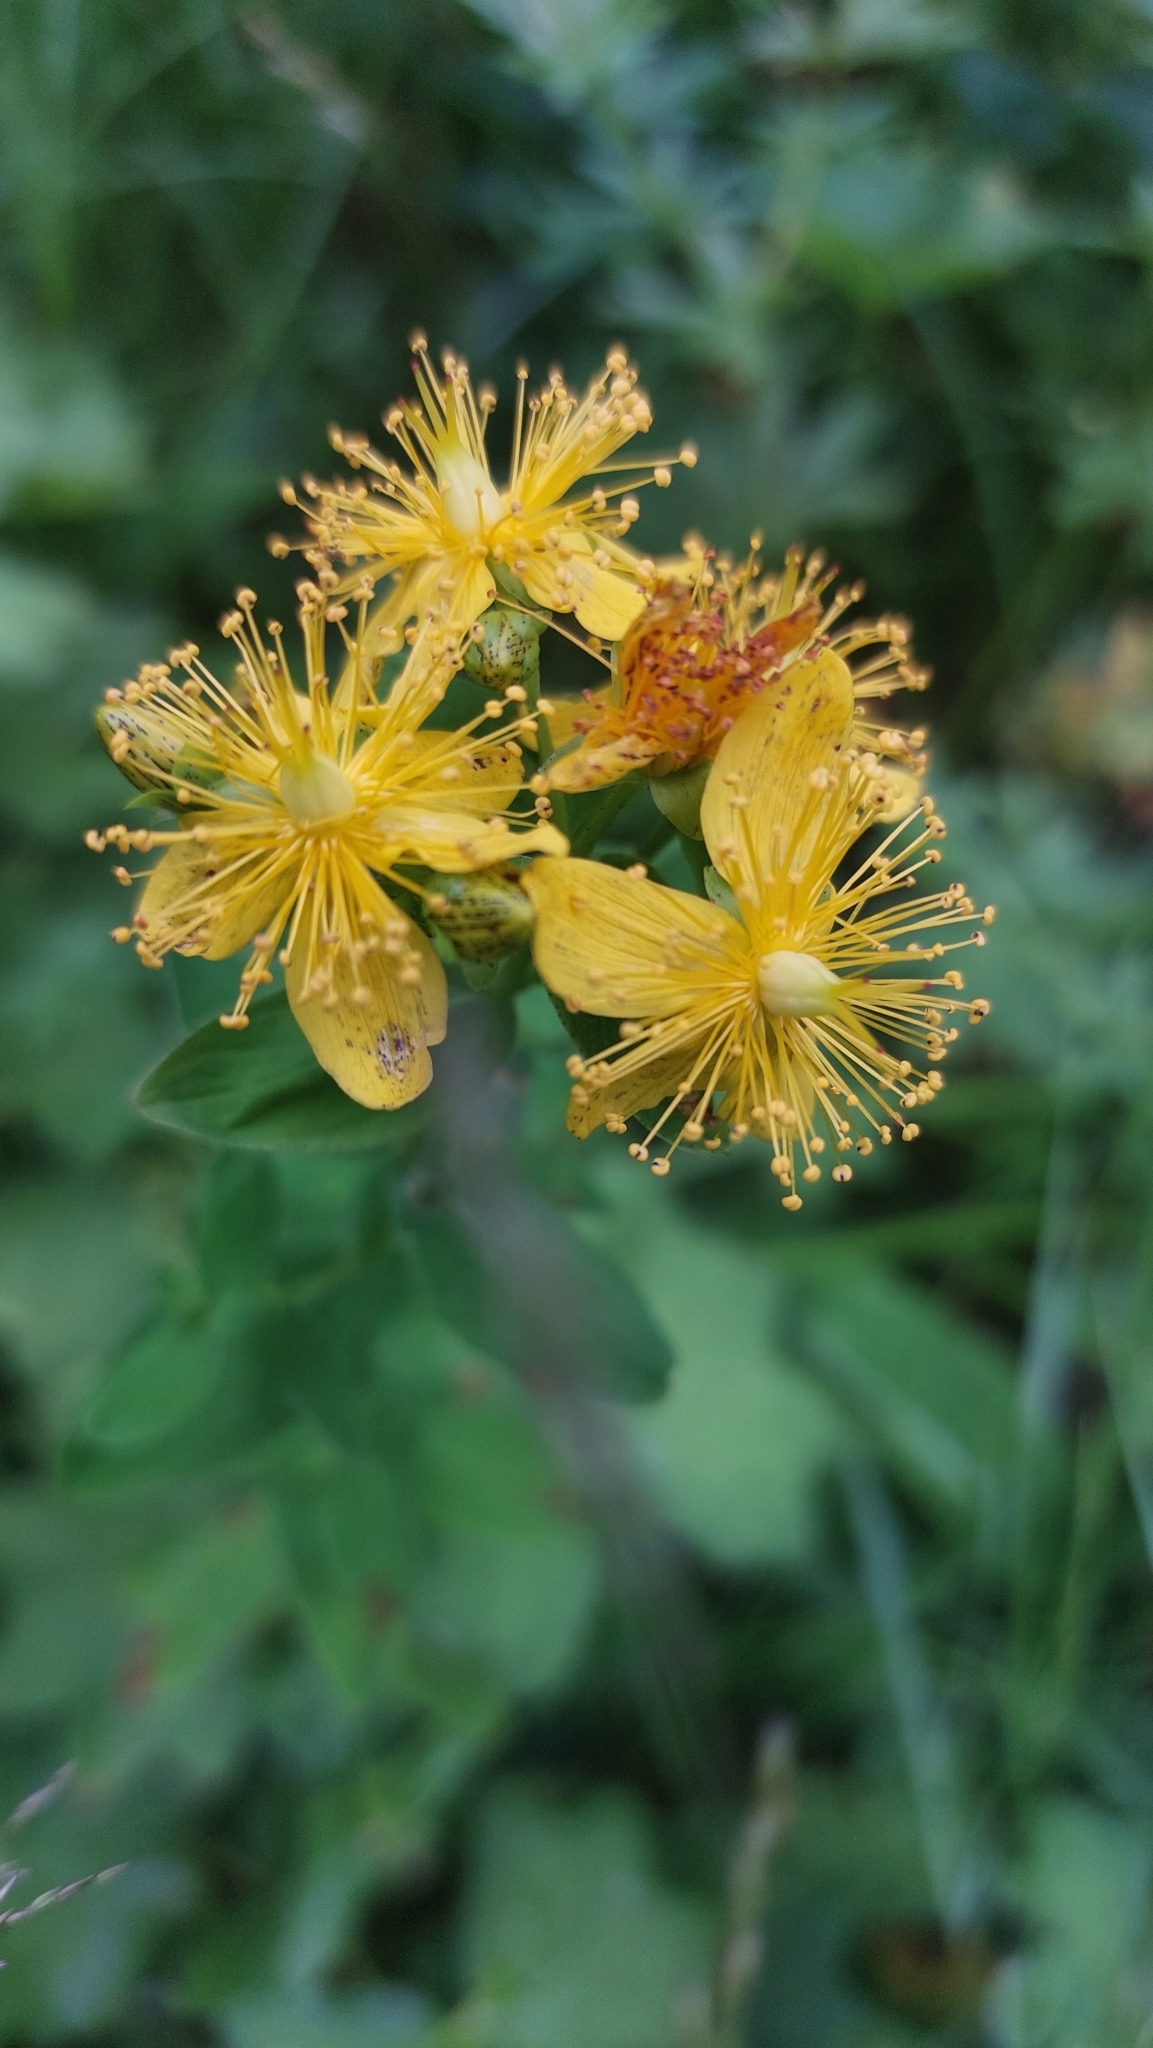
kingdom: Plantae
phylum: Tracheophyta
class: Magnoliopsida
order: Malpighiales
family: Hypericaceae
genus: Hypericum
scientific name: Hypericum maculatum
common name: Imperforate st. john's-wort
